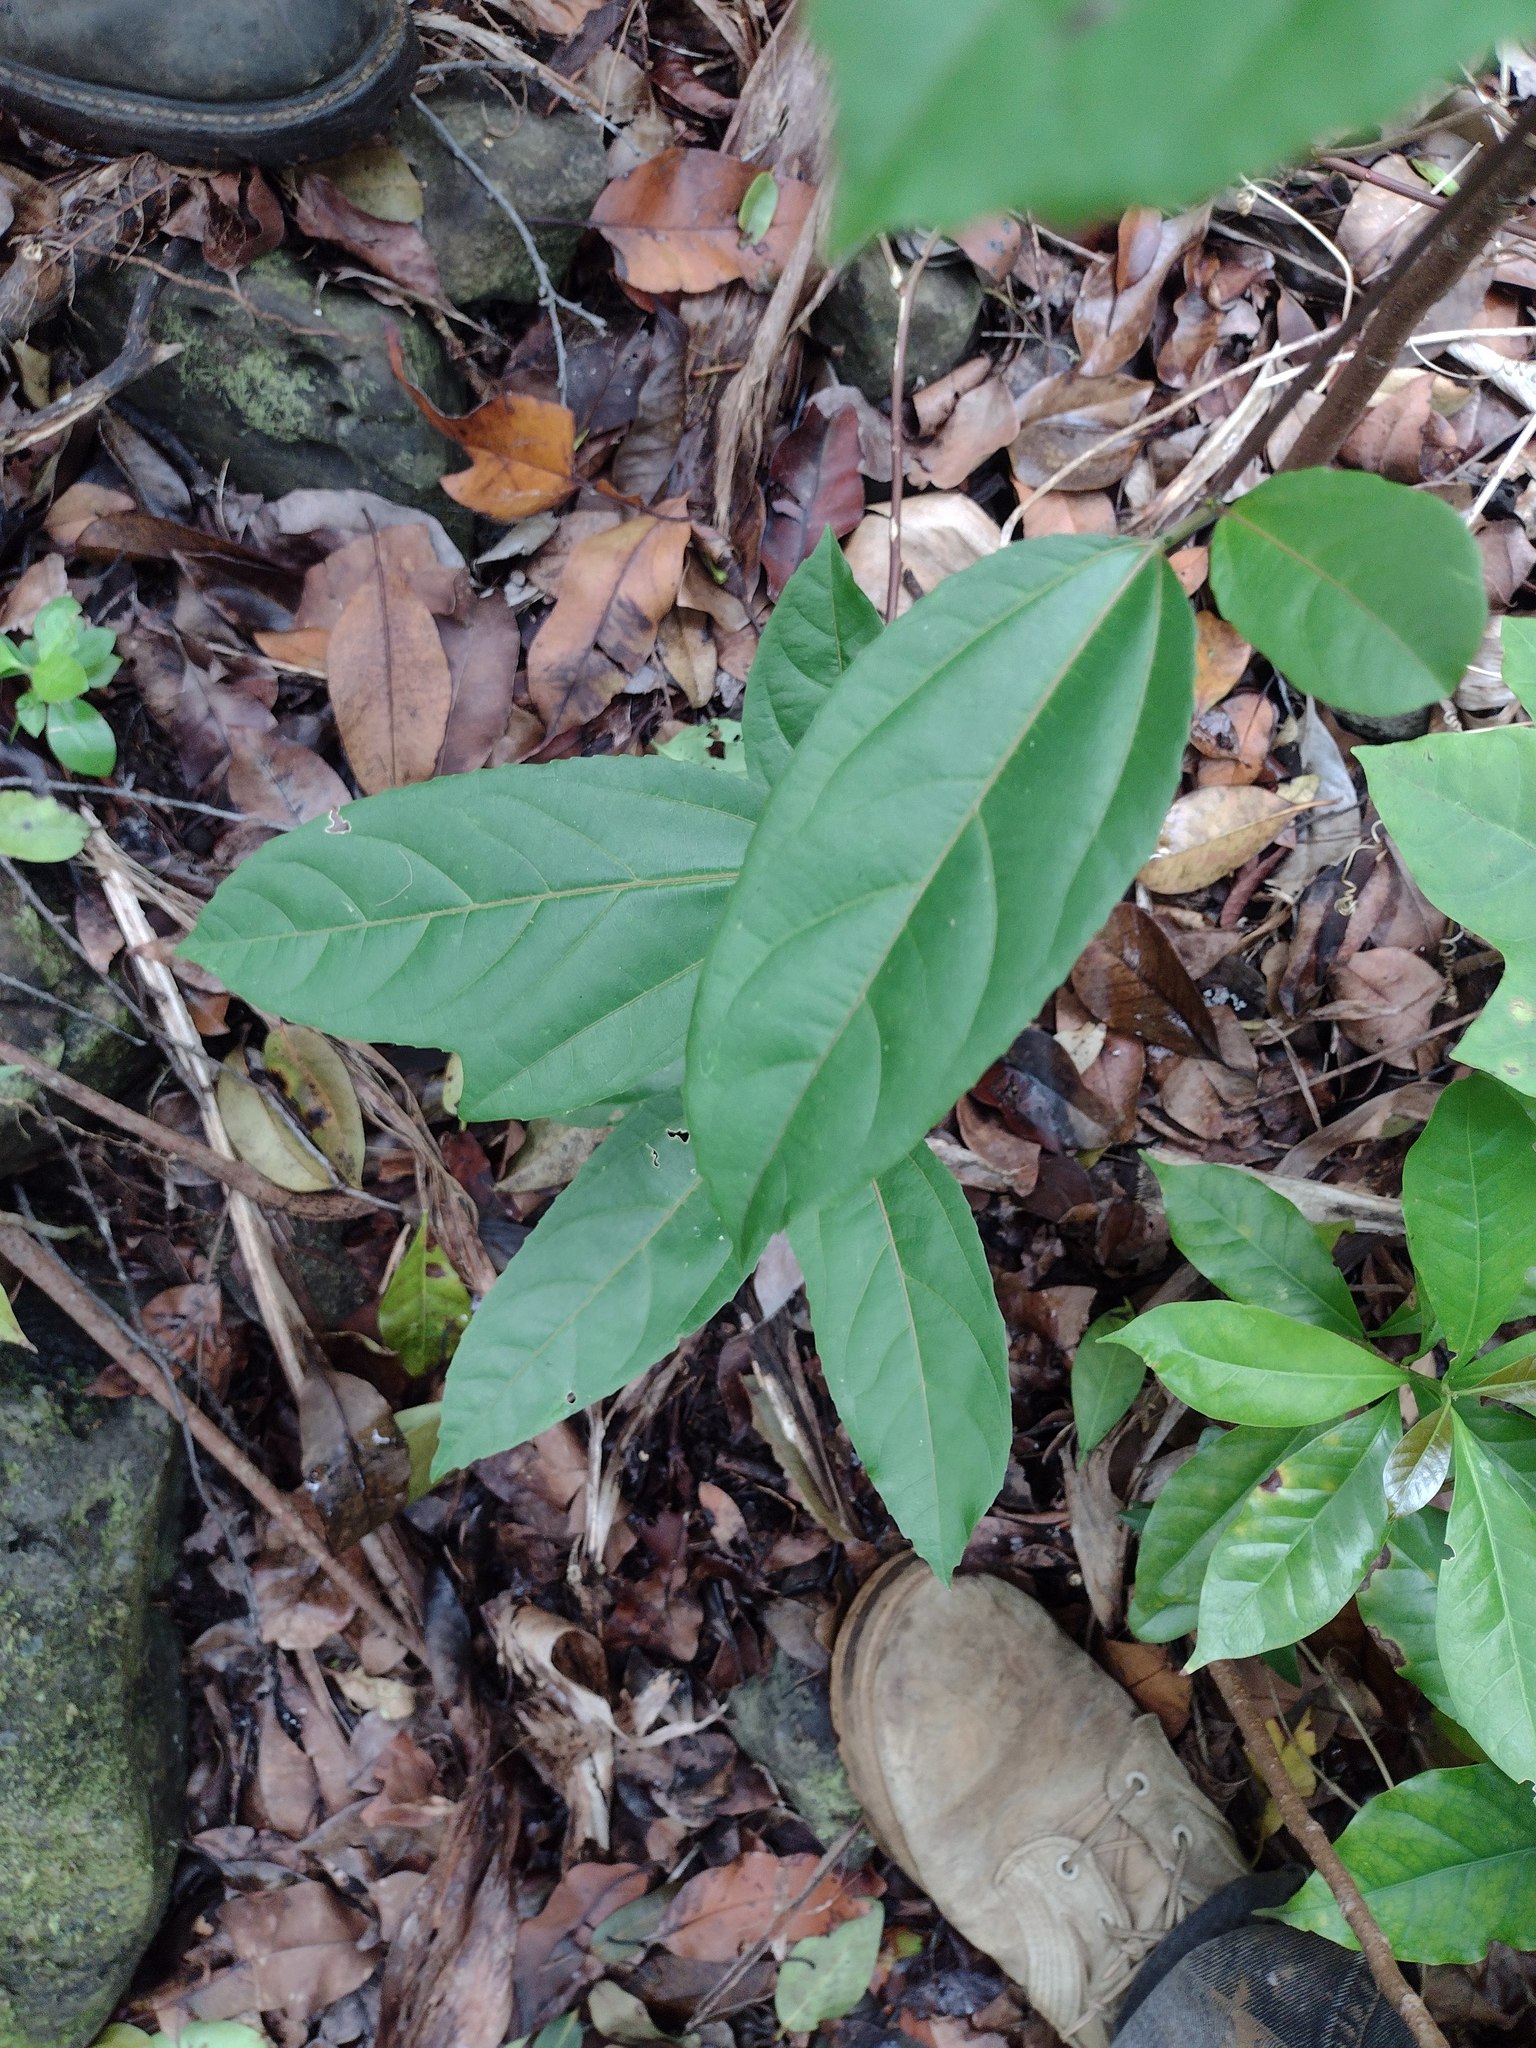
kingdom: Plantae
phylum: Tracheophyta
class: Magnoliopsida
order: Malpighiales
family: Passifloraceae
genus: Passiflora
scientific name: Passiflora edulis
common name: Purple granadilla
